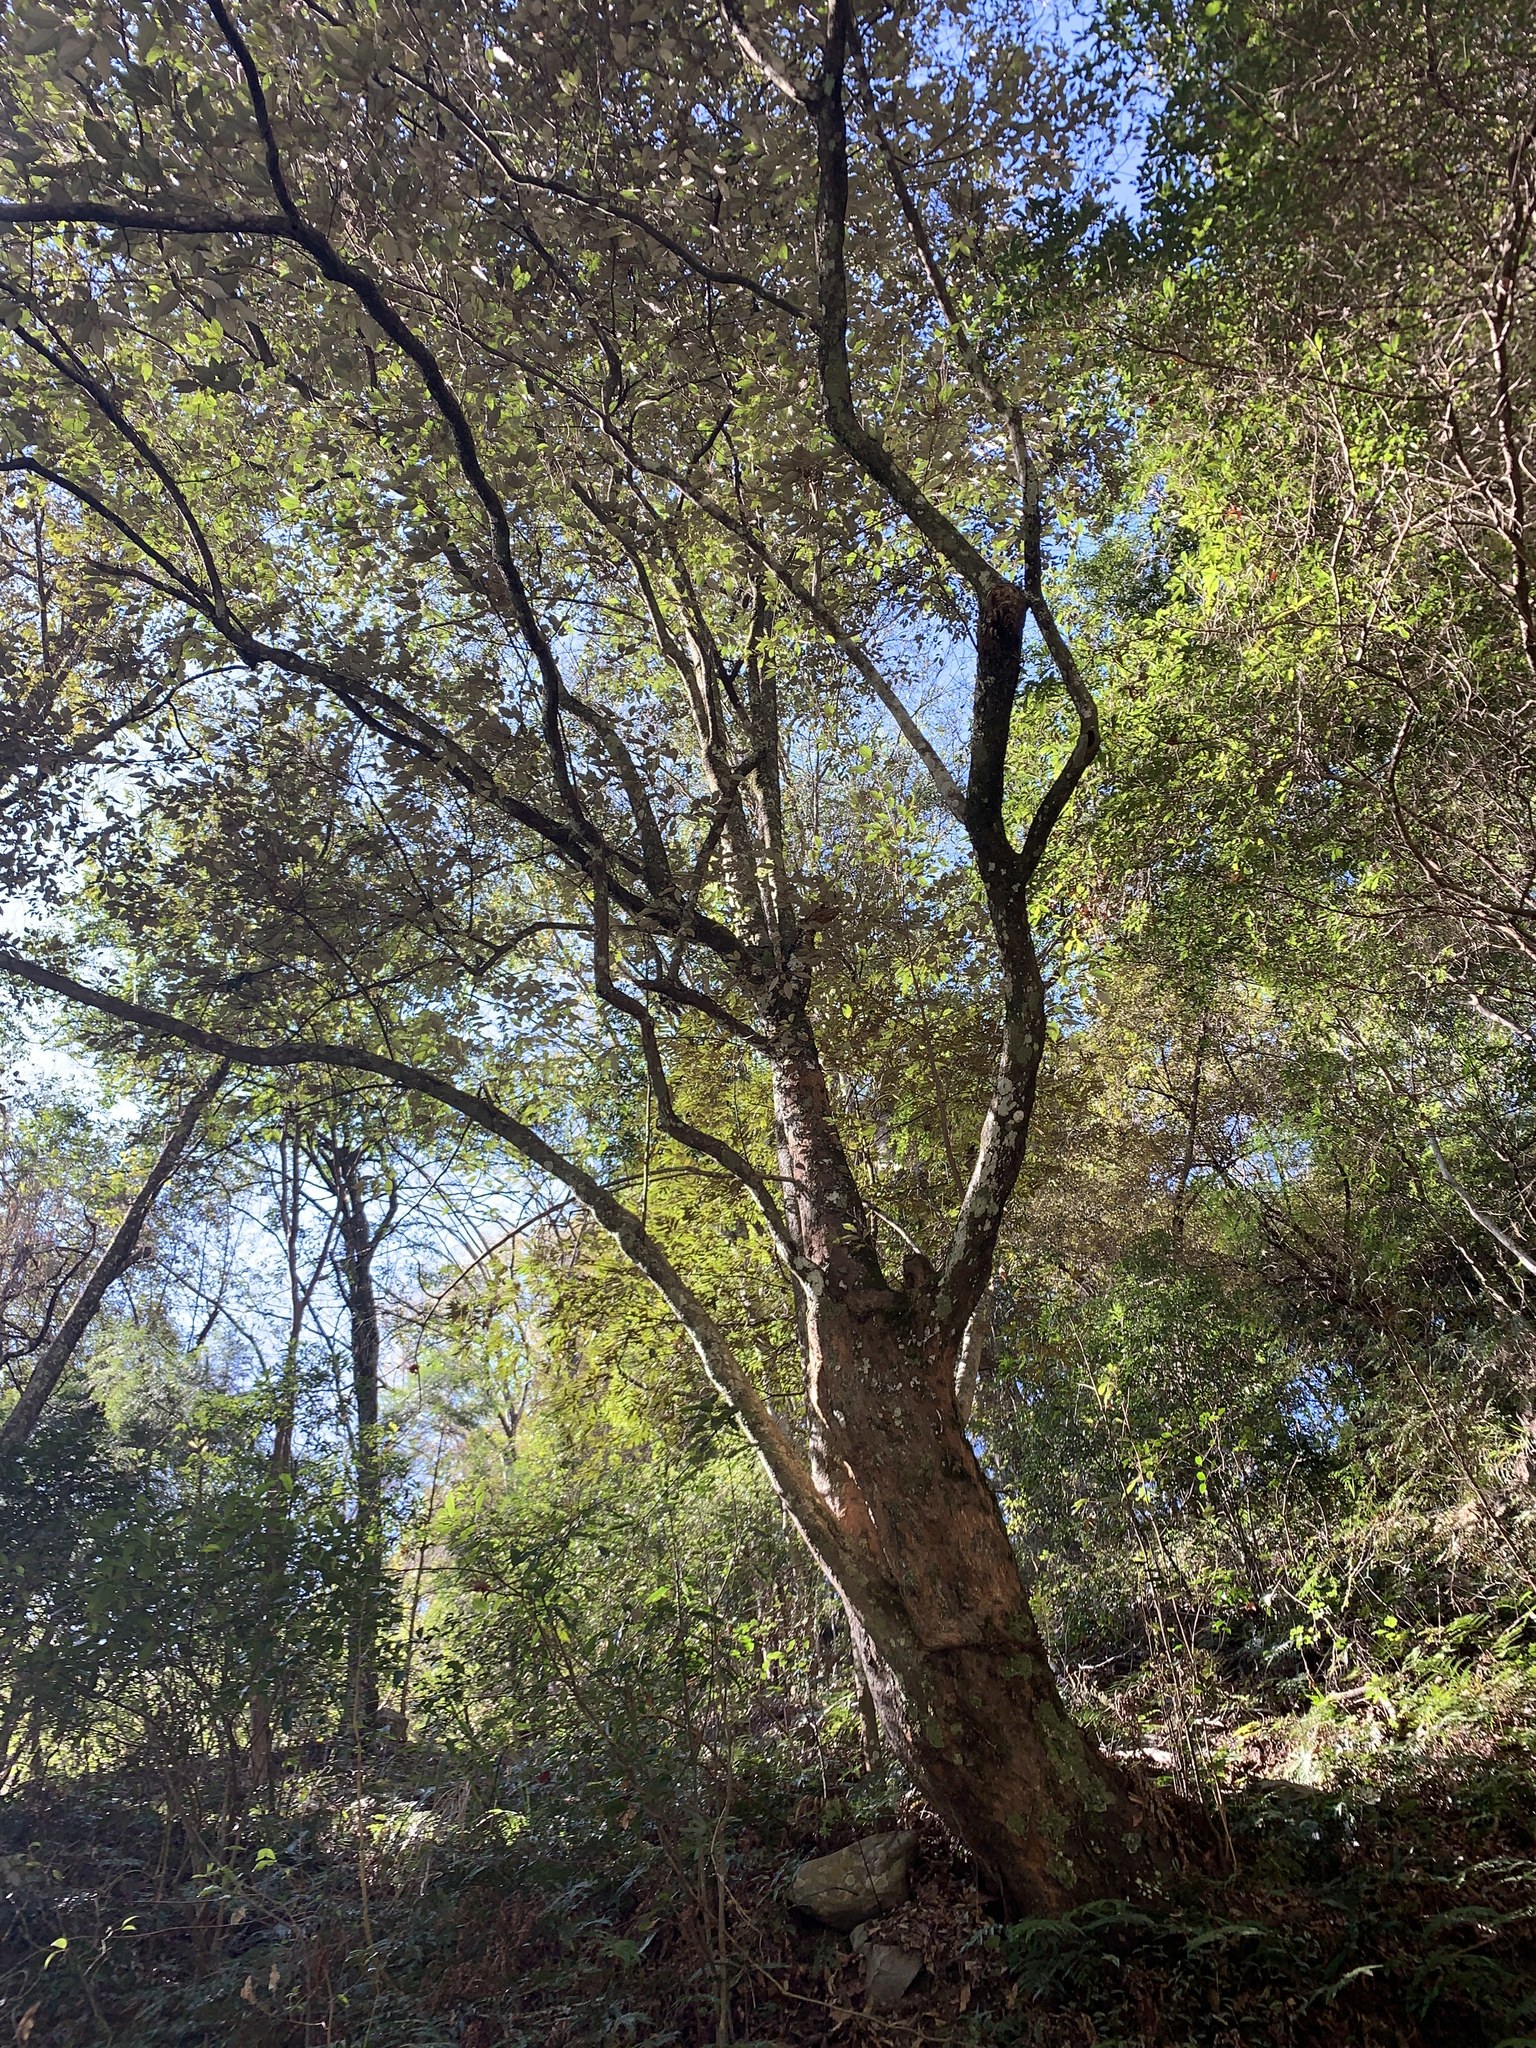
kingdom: Plantae
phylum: Tracheophyta
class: Magnoliopsida
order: Ericales
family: Styracaceae
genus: Styrax
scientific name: Styrax suberifolius
